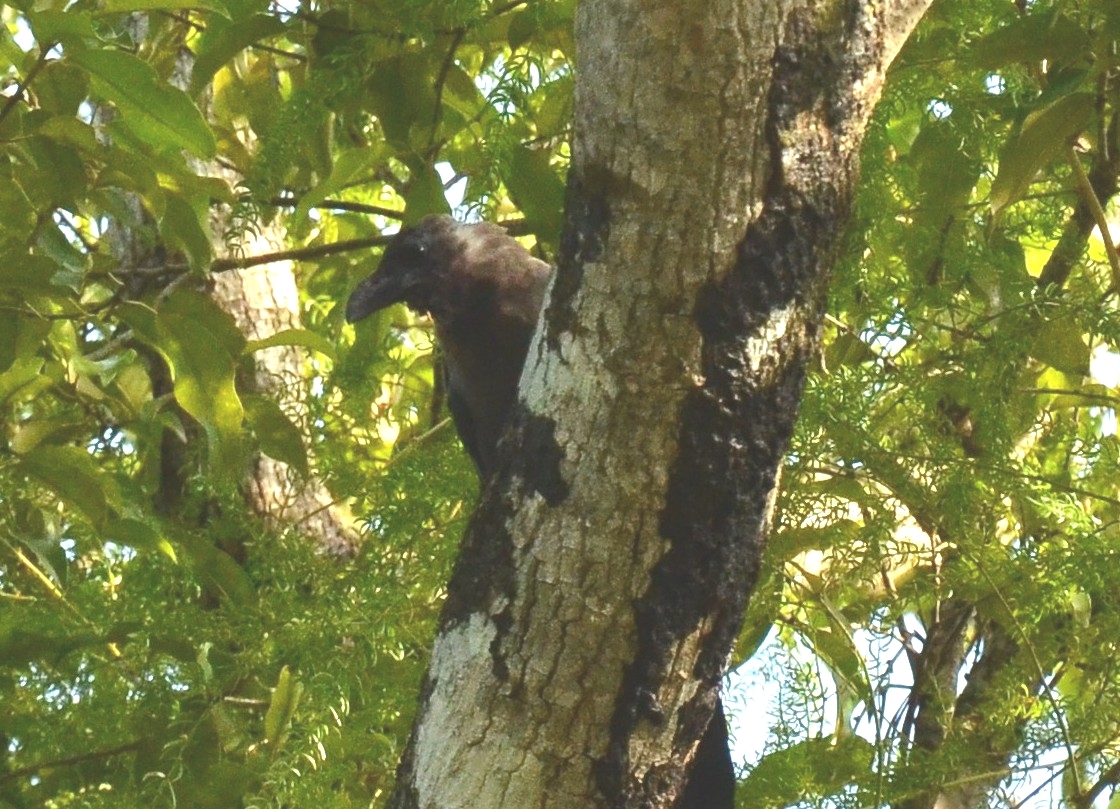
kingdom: Animalia
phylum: Chordata
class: Aves
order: Passeriformes
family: Corvidae
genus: Corvus
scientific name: Corvus splendens
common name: House crow
